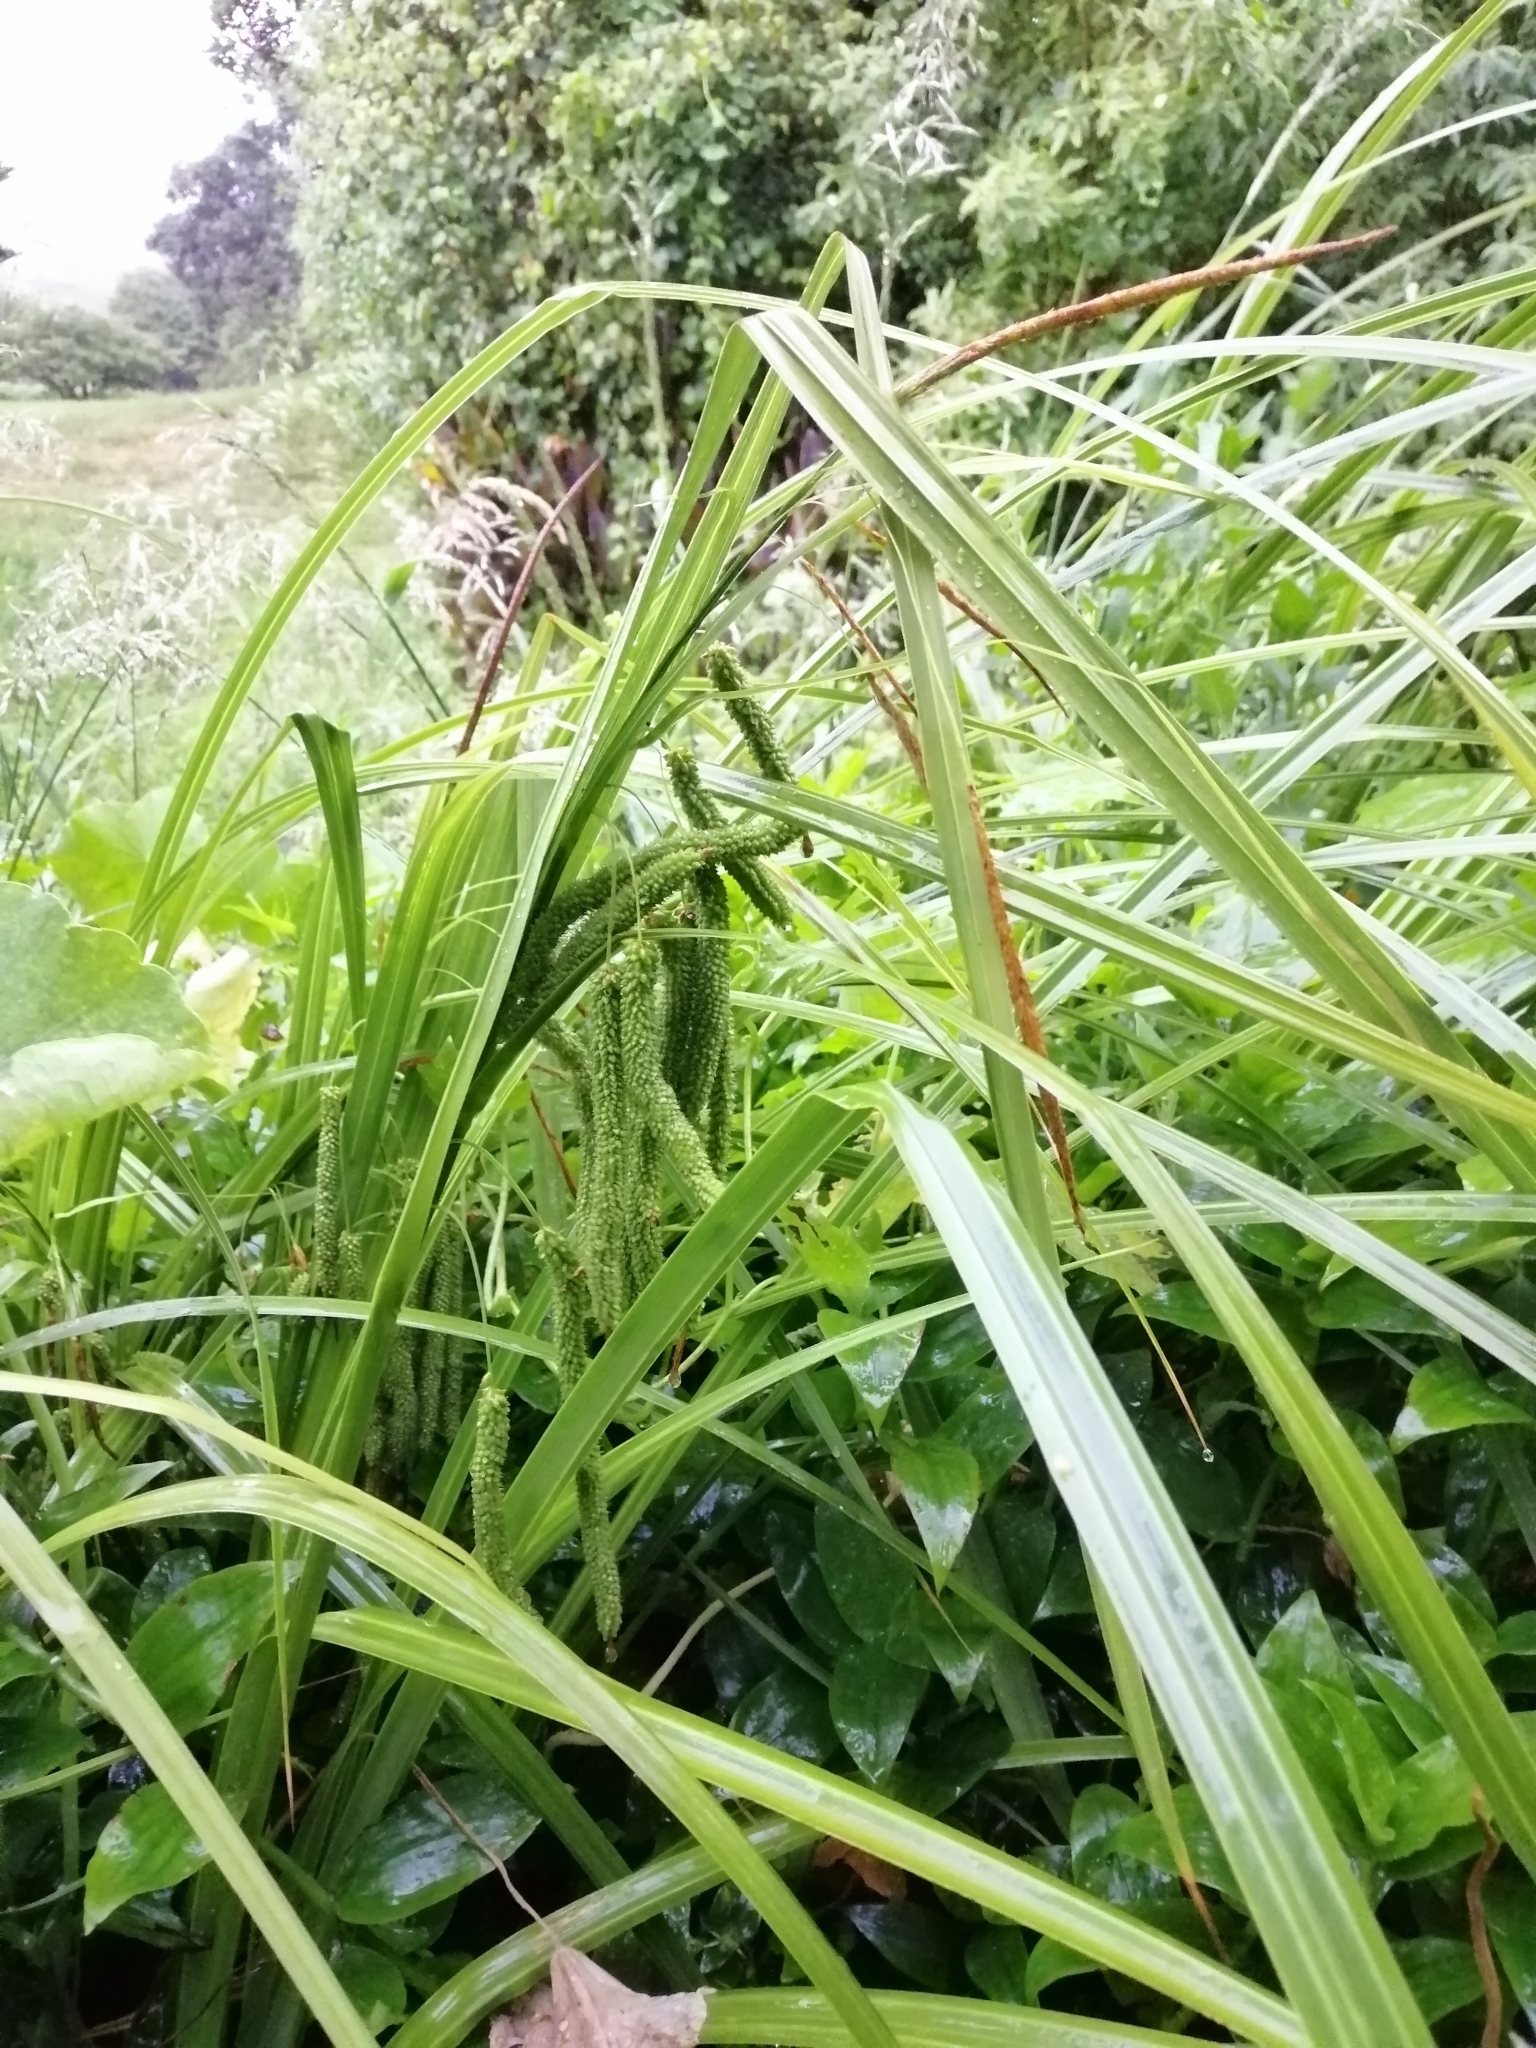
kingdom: Plantae
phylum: Tracheophyta
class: Liliopsida
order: Poales
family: Cyperaceae
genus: Carex
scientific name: Carex geminata
